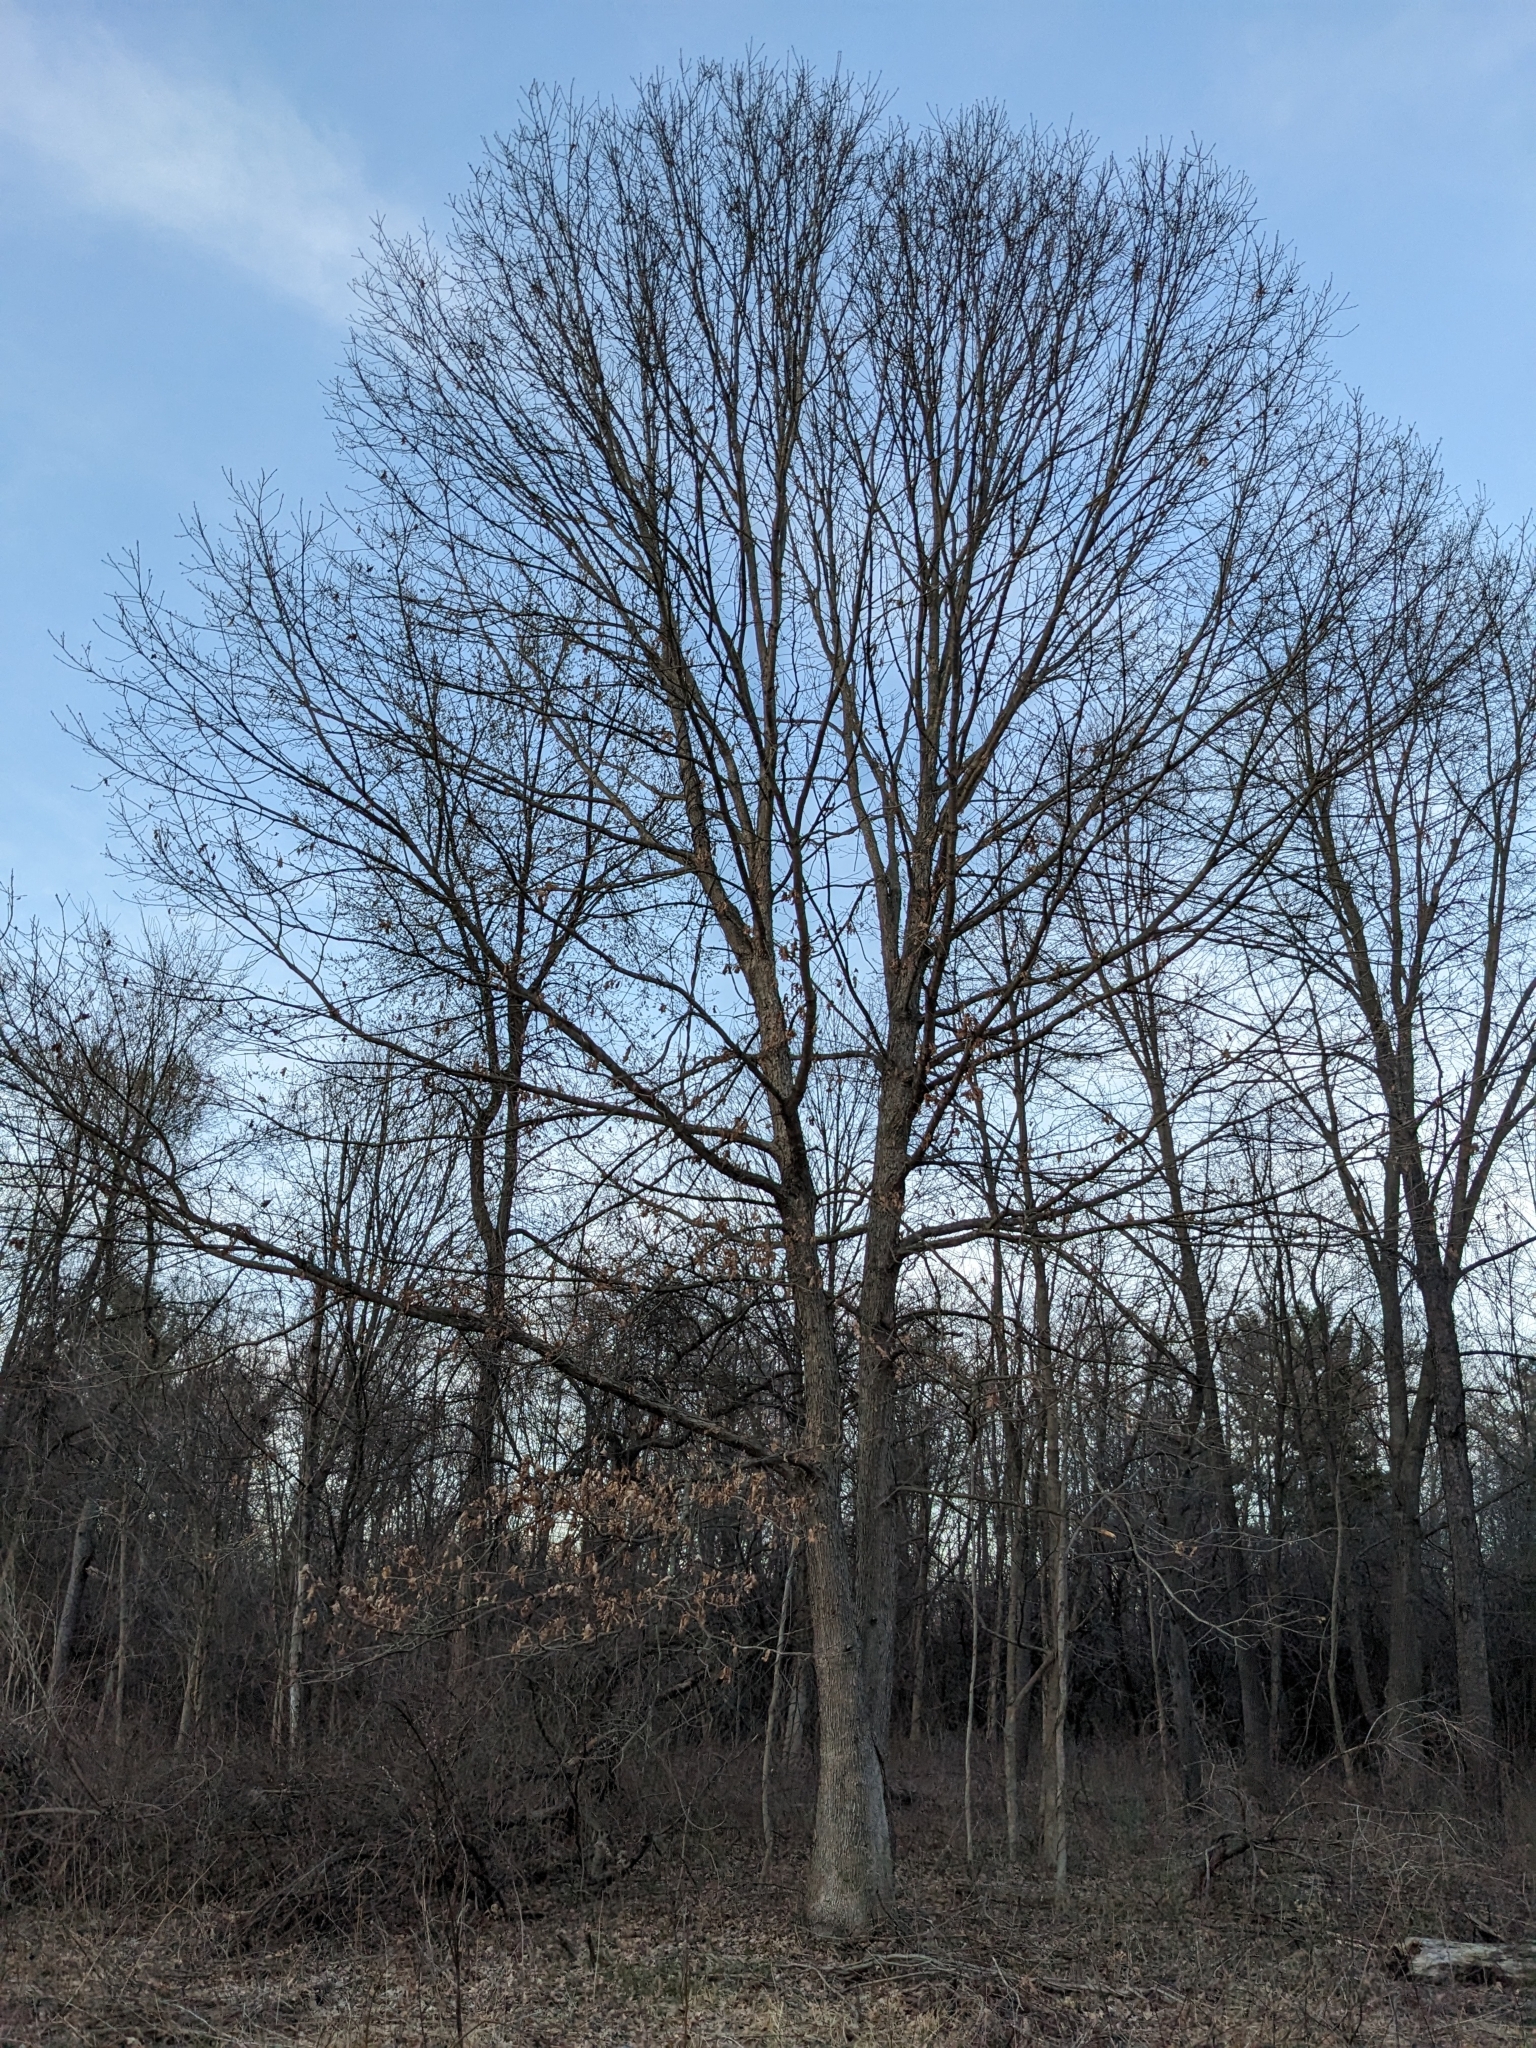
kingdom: Plantae
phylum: Tracheophyta
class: Magnoliopsida
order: Fagales
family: Fagaceae
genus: Quercus
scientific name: Quercus alba
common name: White oak
